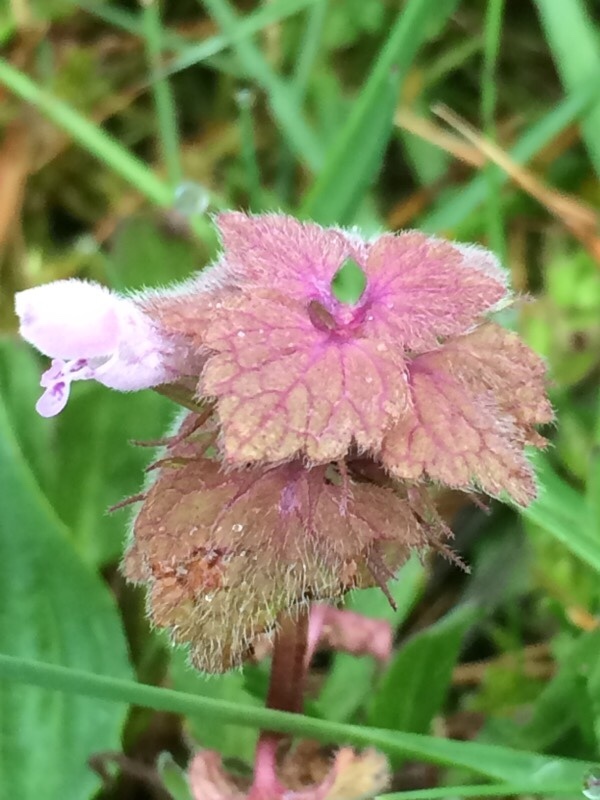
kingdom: Plantae
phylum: Tracheophyta
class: Magnoliopsida
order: Lamiales
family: Lamiaceae
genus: Lamium
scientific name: Lamium purpureum
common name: Red dead-nettle
